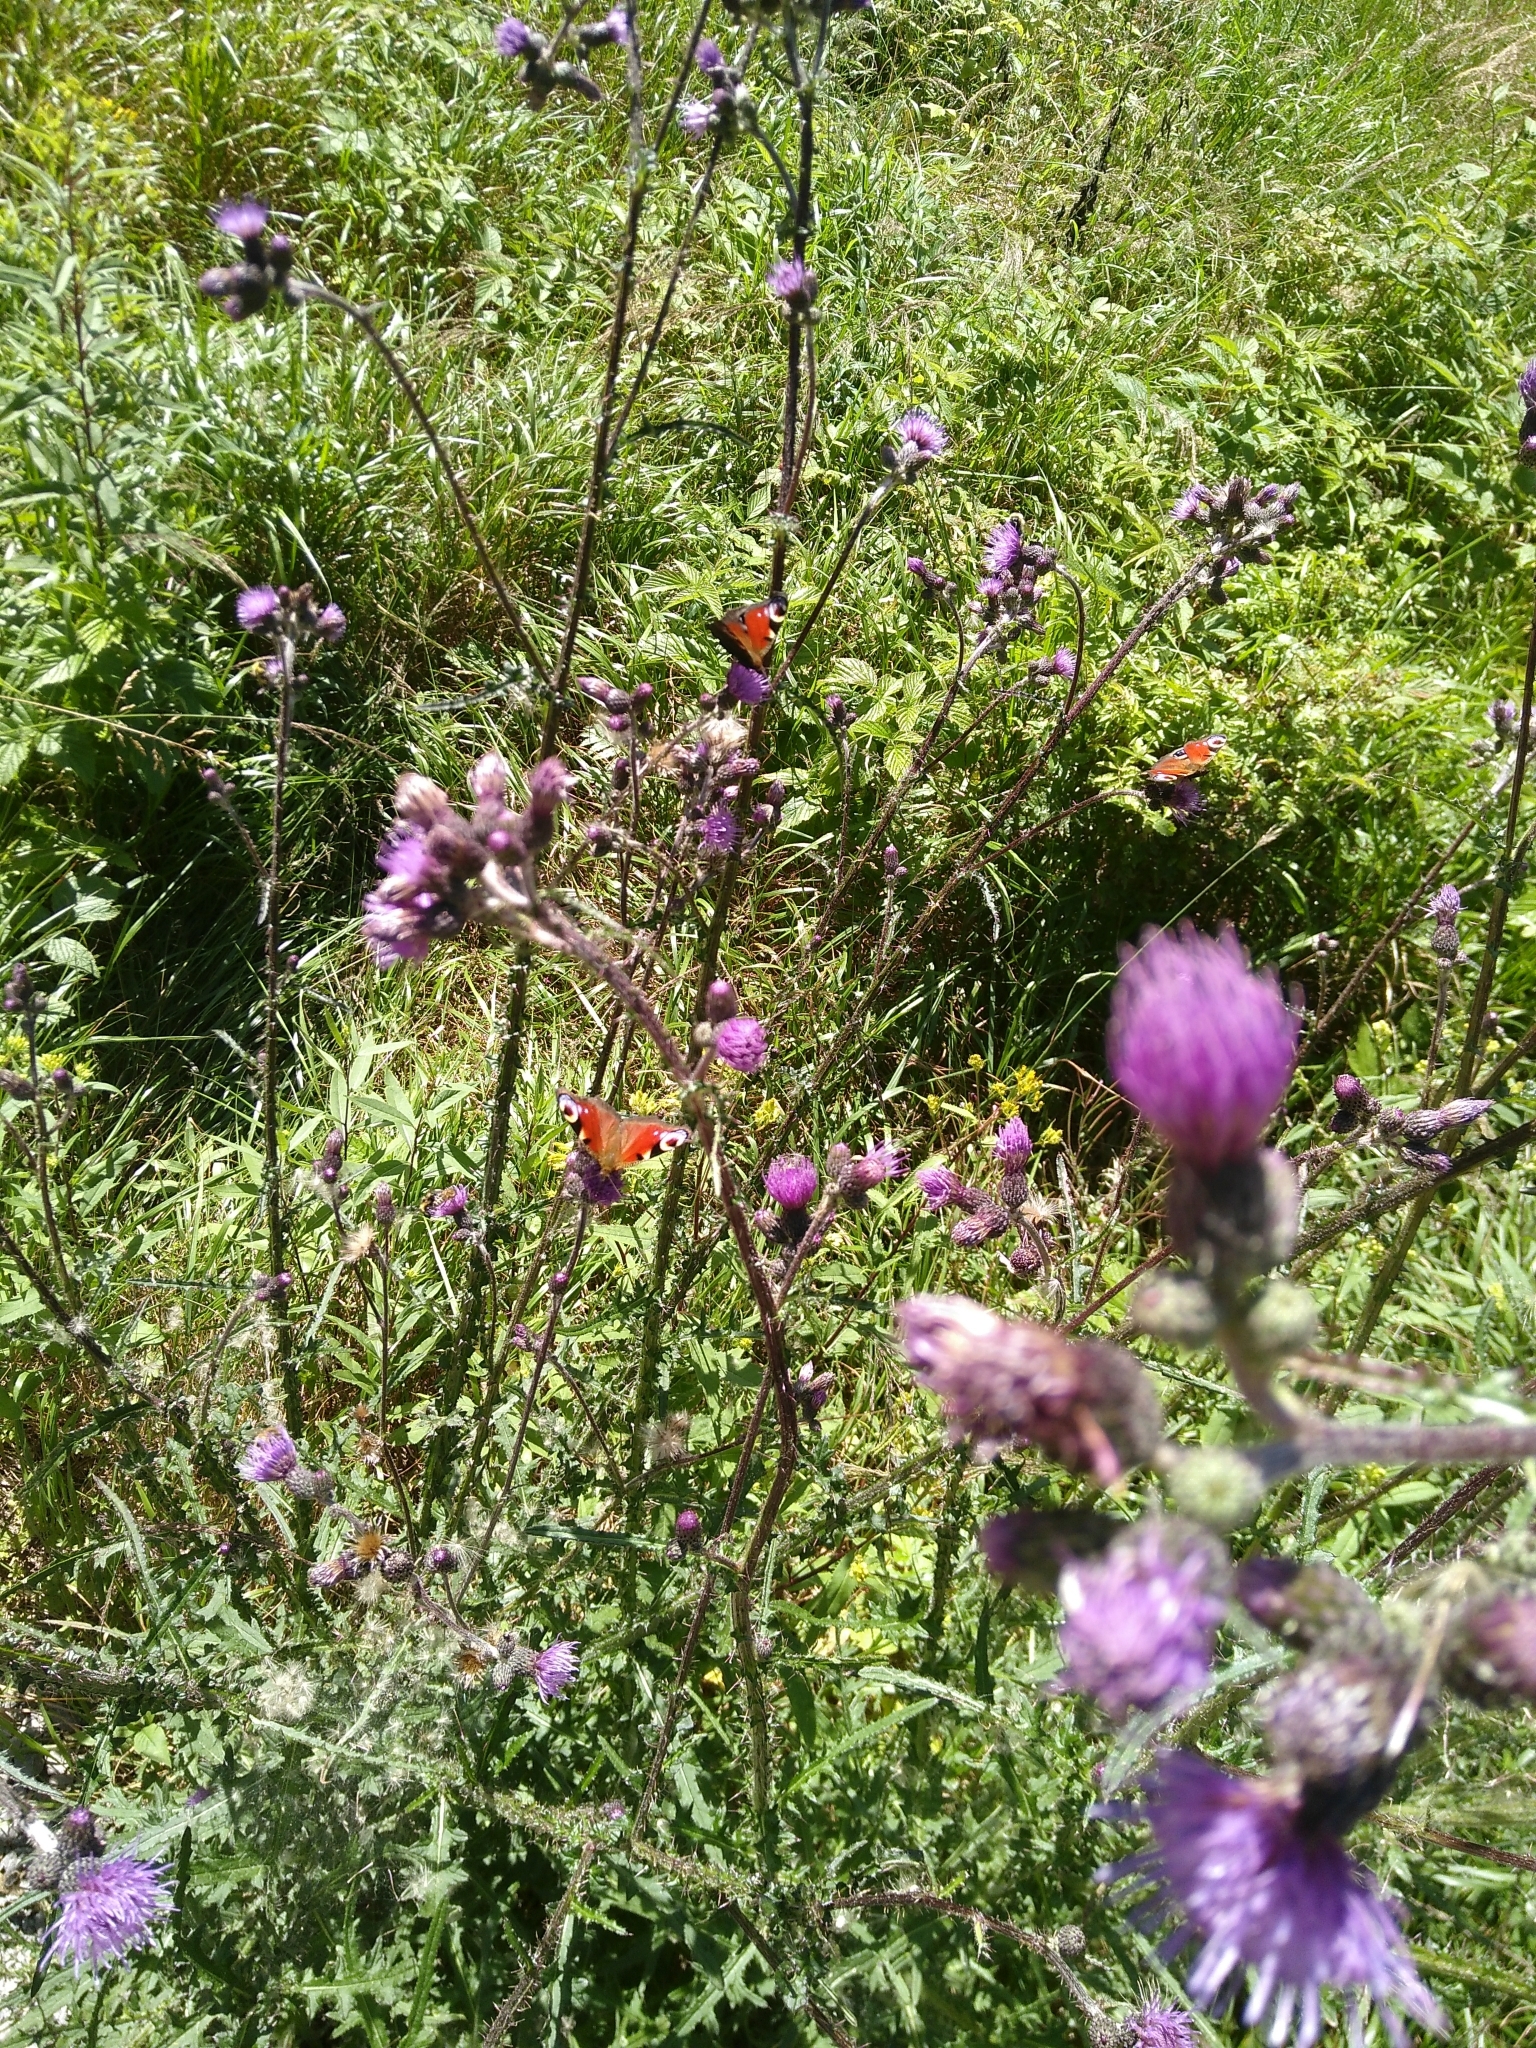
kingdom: Animalia
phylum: Arthropoda
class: Insecta
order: Lepidoptera
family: Nymphalidae
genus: Aglais
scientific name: Aglais io
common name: Peacock
